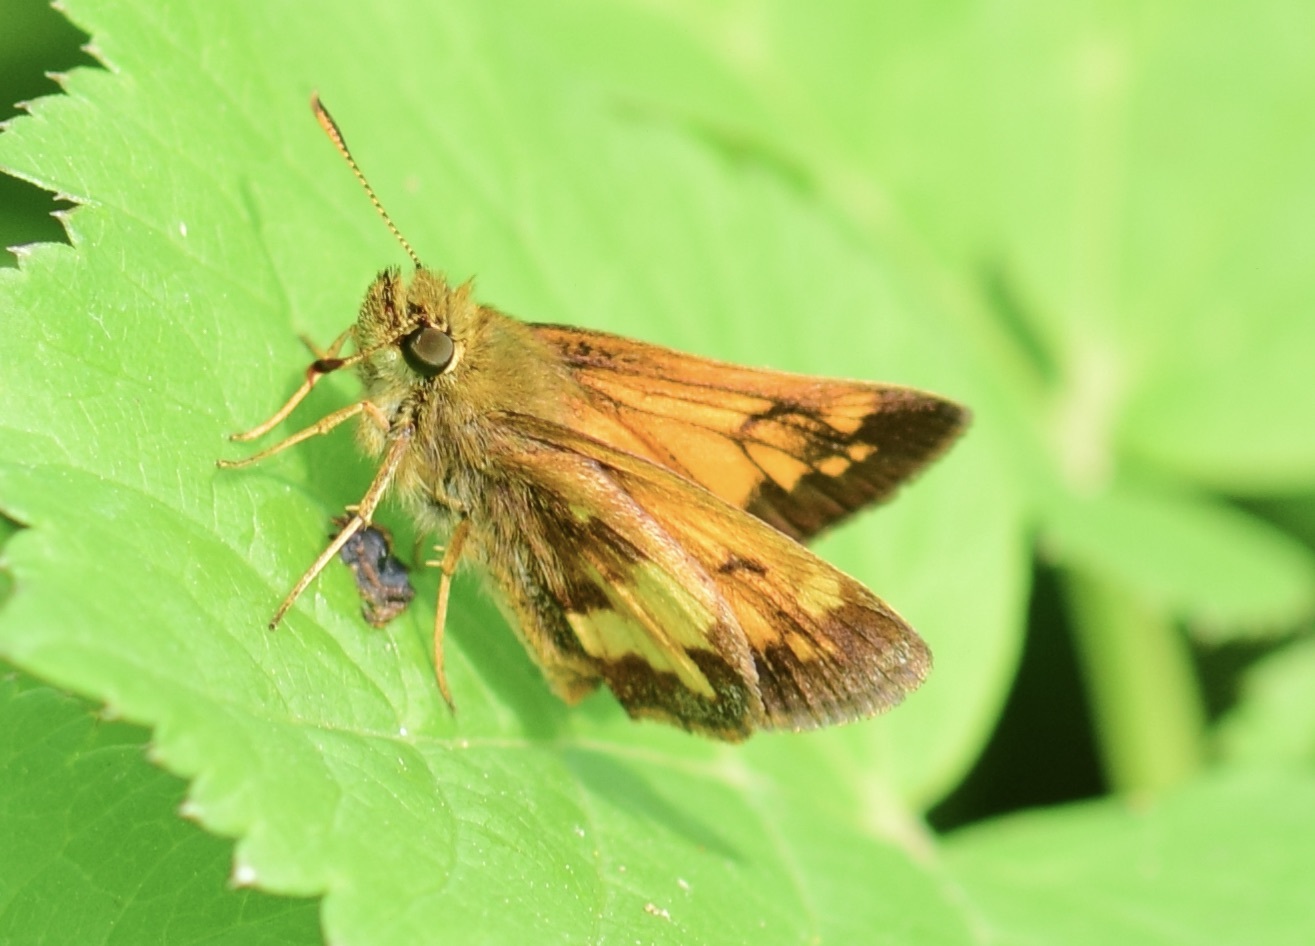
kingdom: Animalia
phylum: Arthropoda
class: Insecta
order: Lepidoptera
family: Hesperiidae
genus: Lon
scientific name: Lon hobomok
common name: Hobomok skipper
